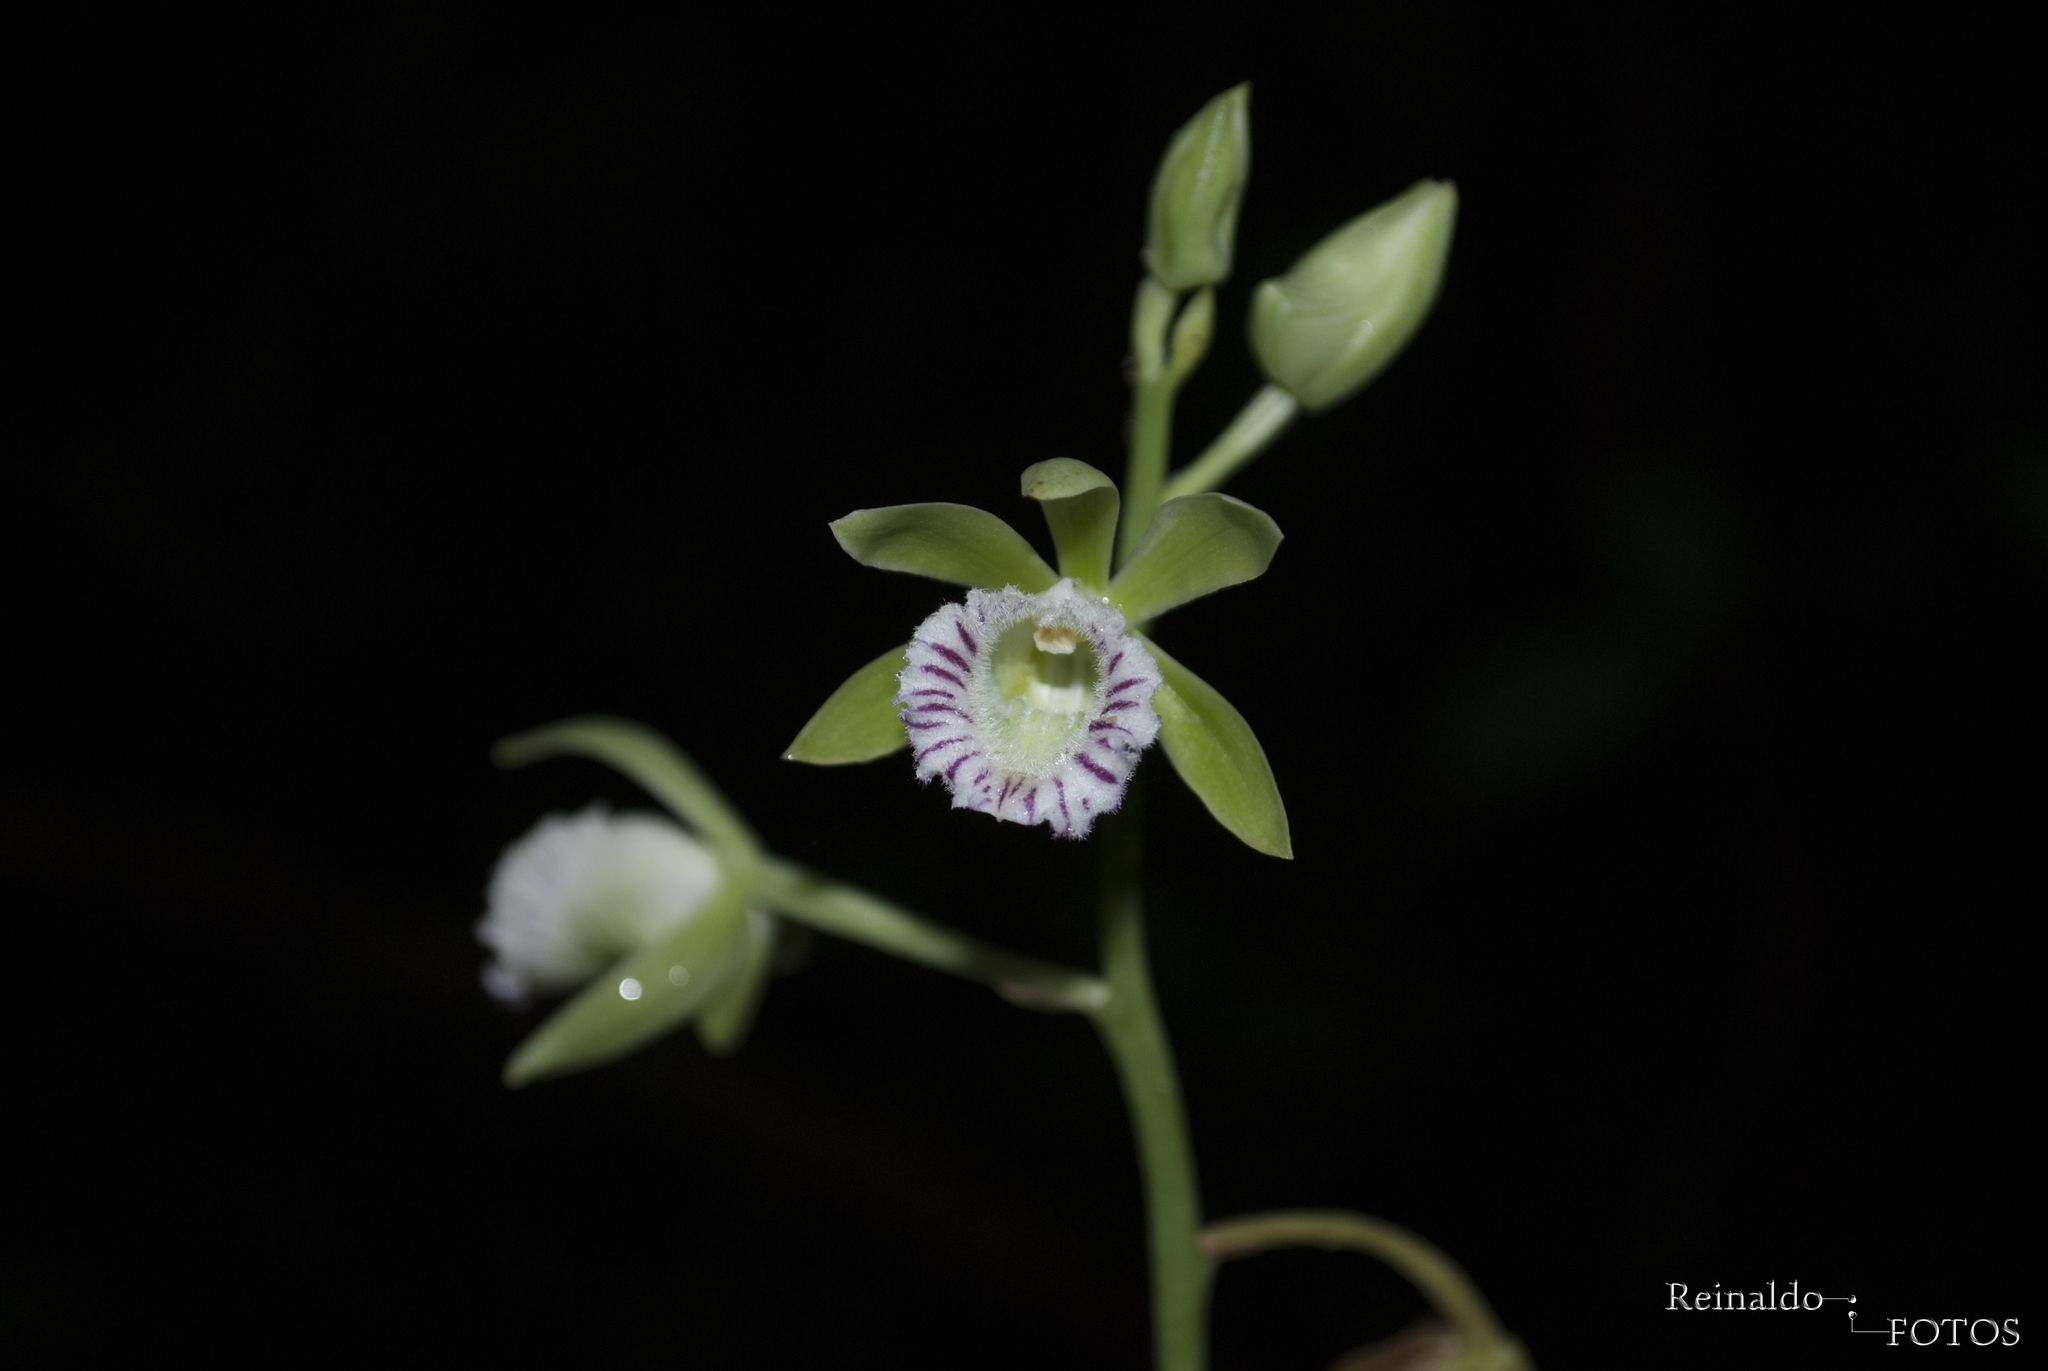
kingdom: Plantae
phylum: Tracheophyta
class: Liliopsida
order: Asparagales
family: Orchidaceae
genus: Galeandra
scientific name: Galeandra beyrichii
